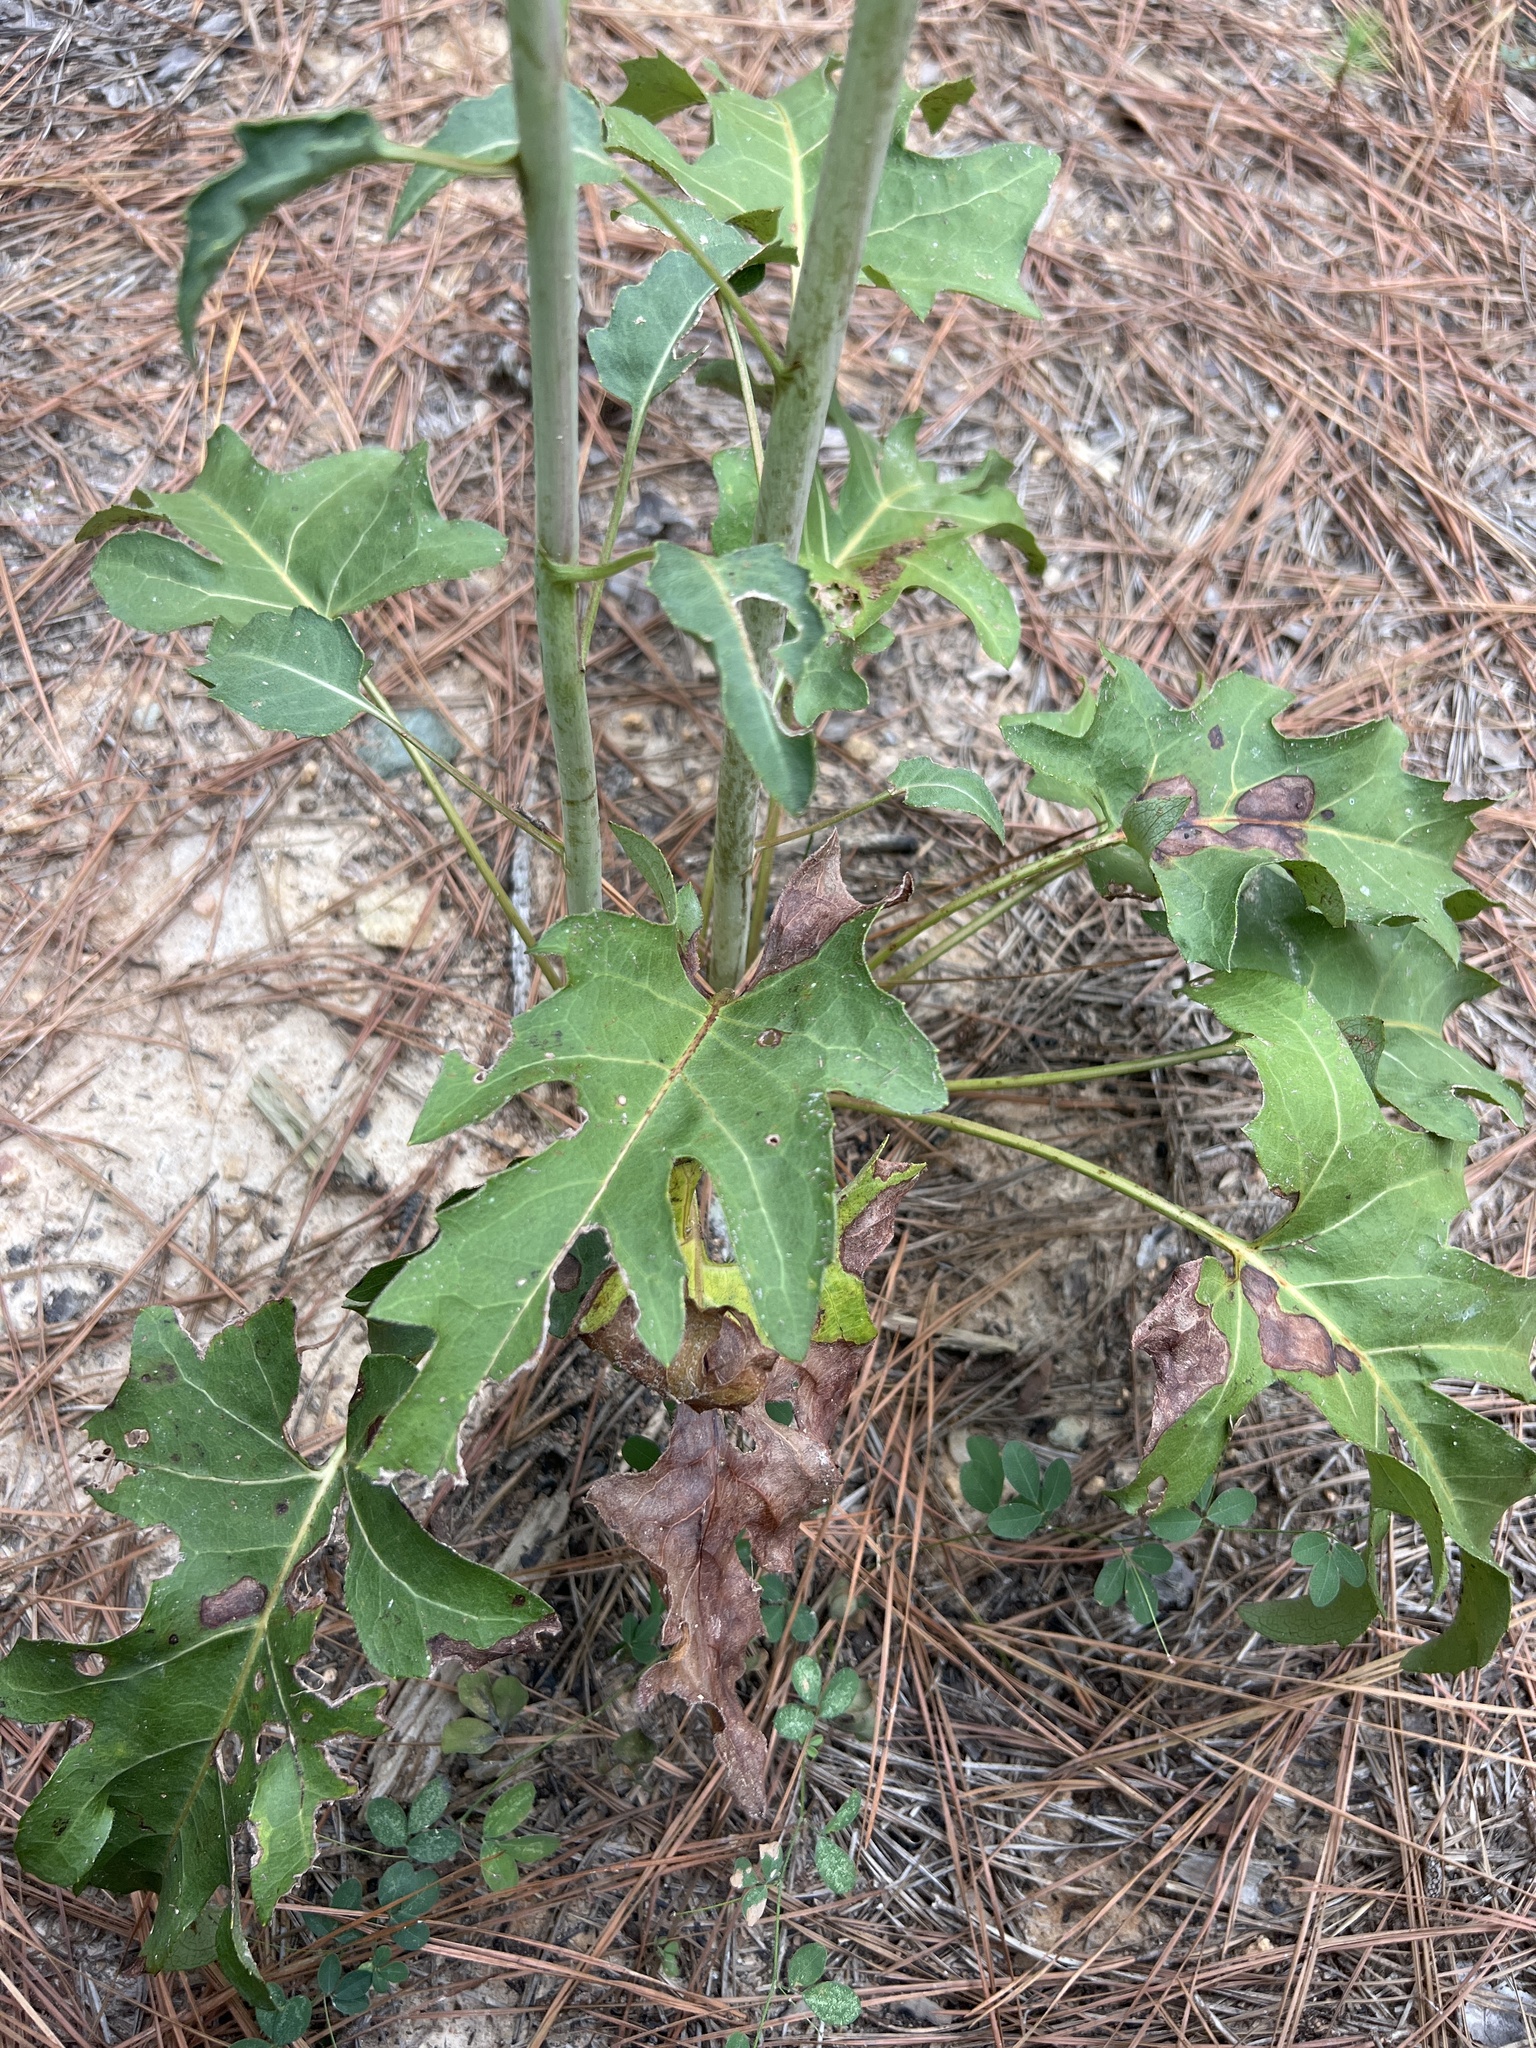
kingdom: Plantae
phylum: Tracheophyta
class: Magnoliopsida
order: Asterales
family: Asteraceae
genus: Silphium
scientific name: Silphium compositum
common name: Lesser basal-leaf rosinweed
